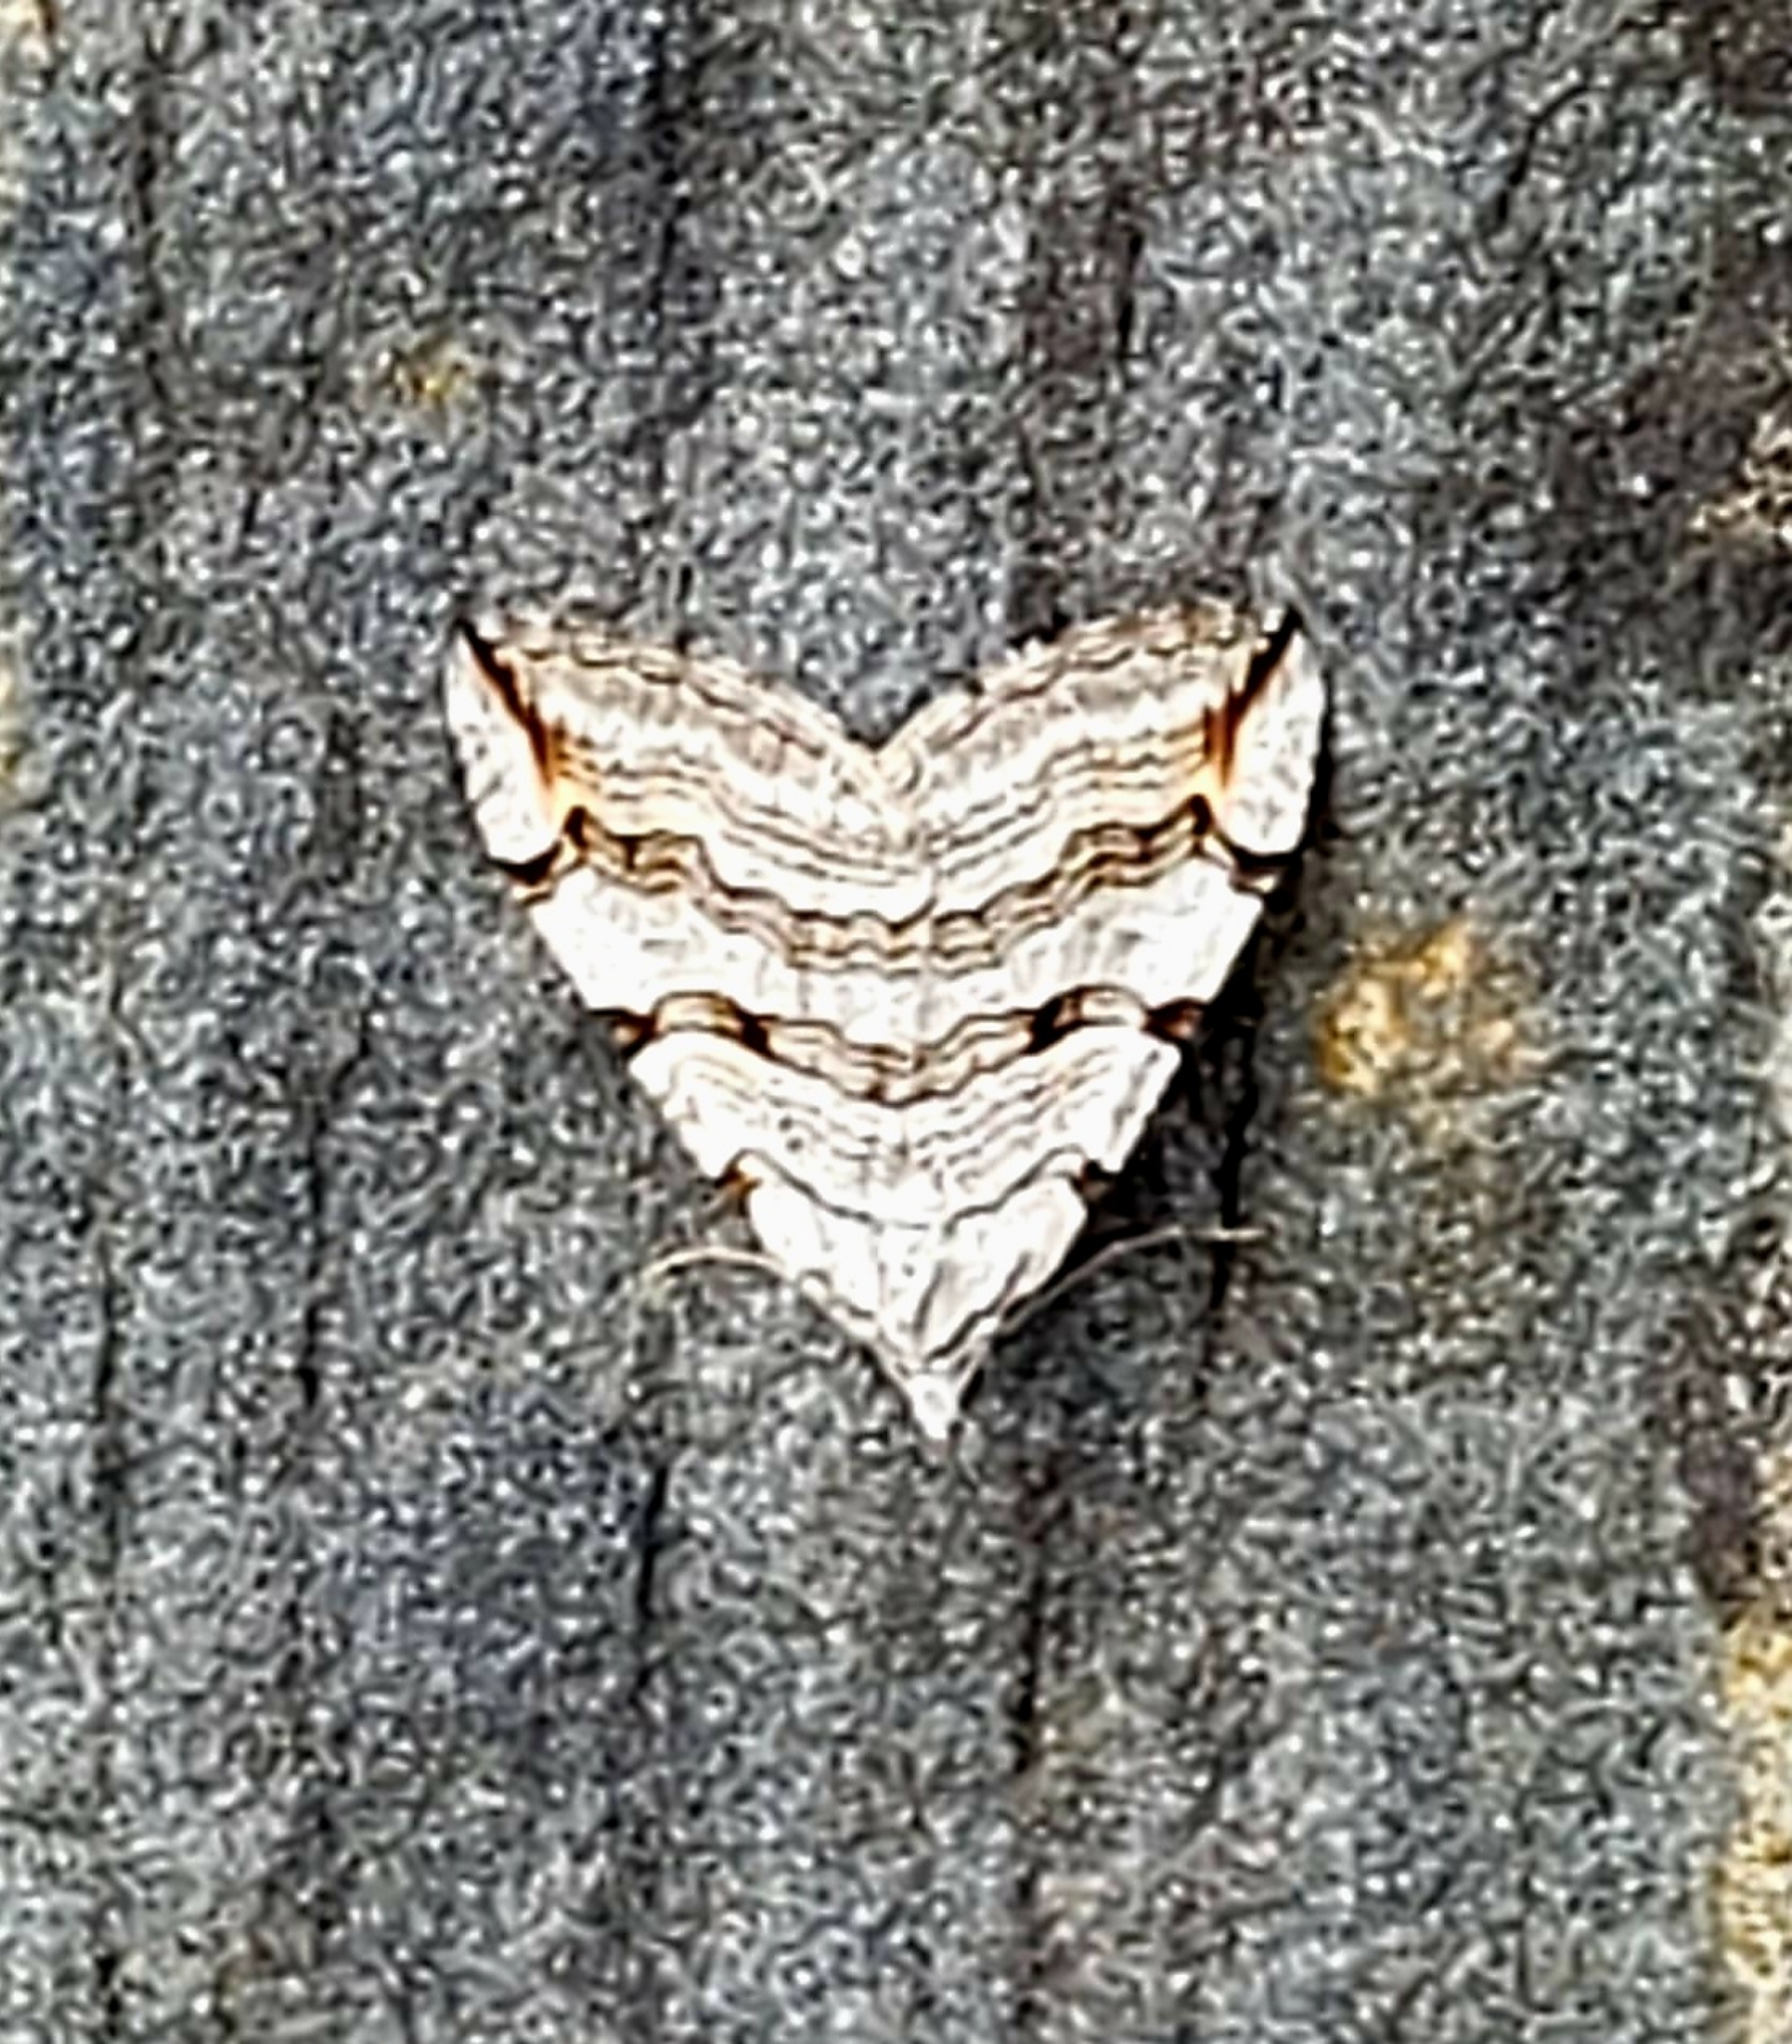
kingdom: Animalia
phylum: Arthropoda
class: Insecta
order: Lepidoptera
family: Geometridae
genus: Aplocera
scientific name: Aplocera plagiata
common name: Treble-bar
